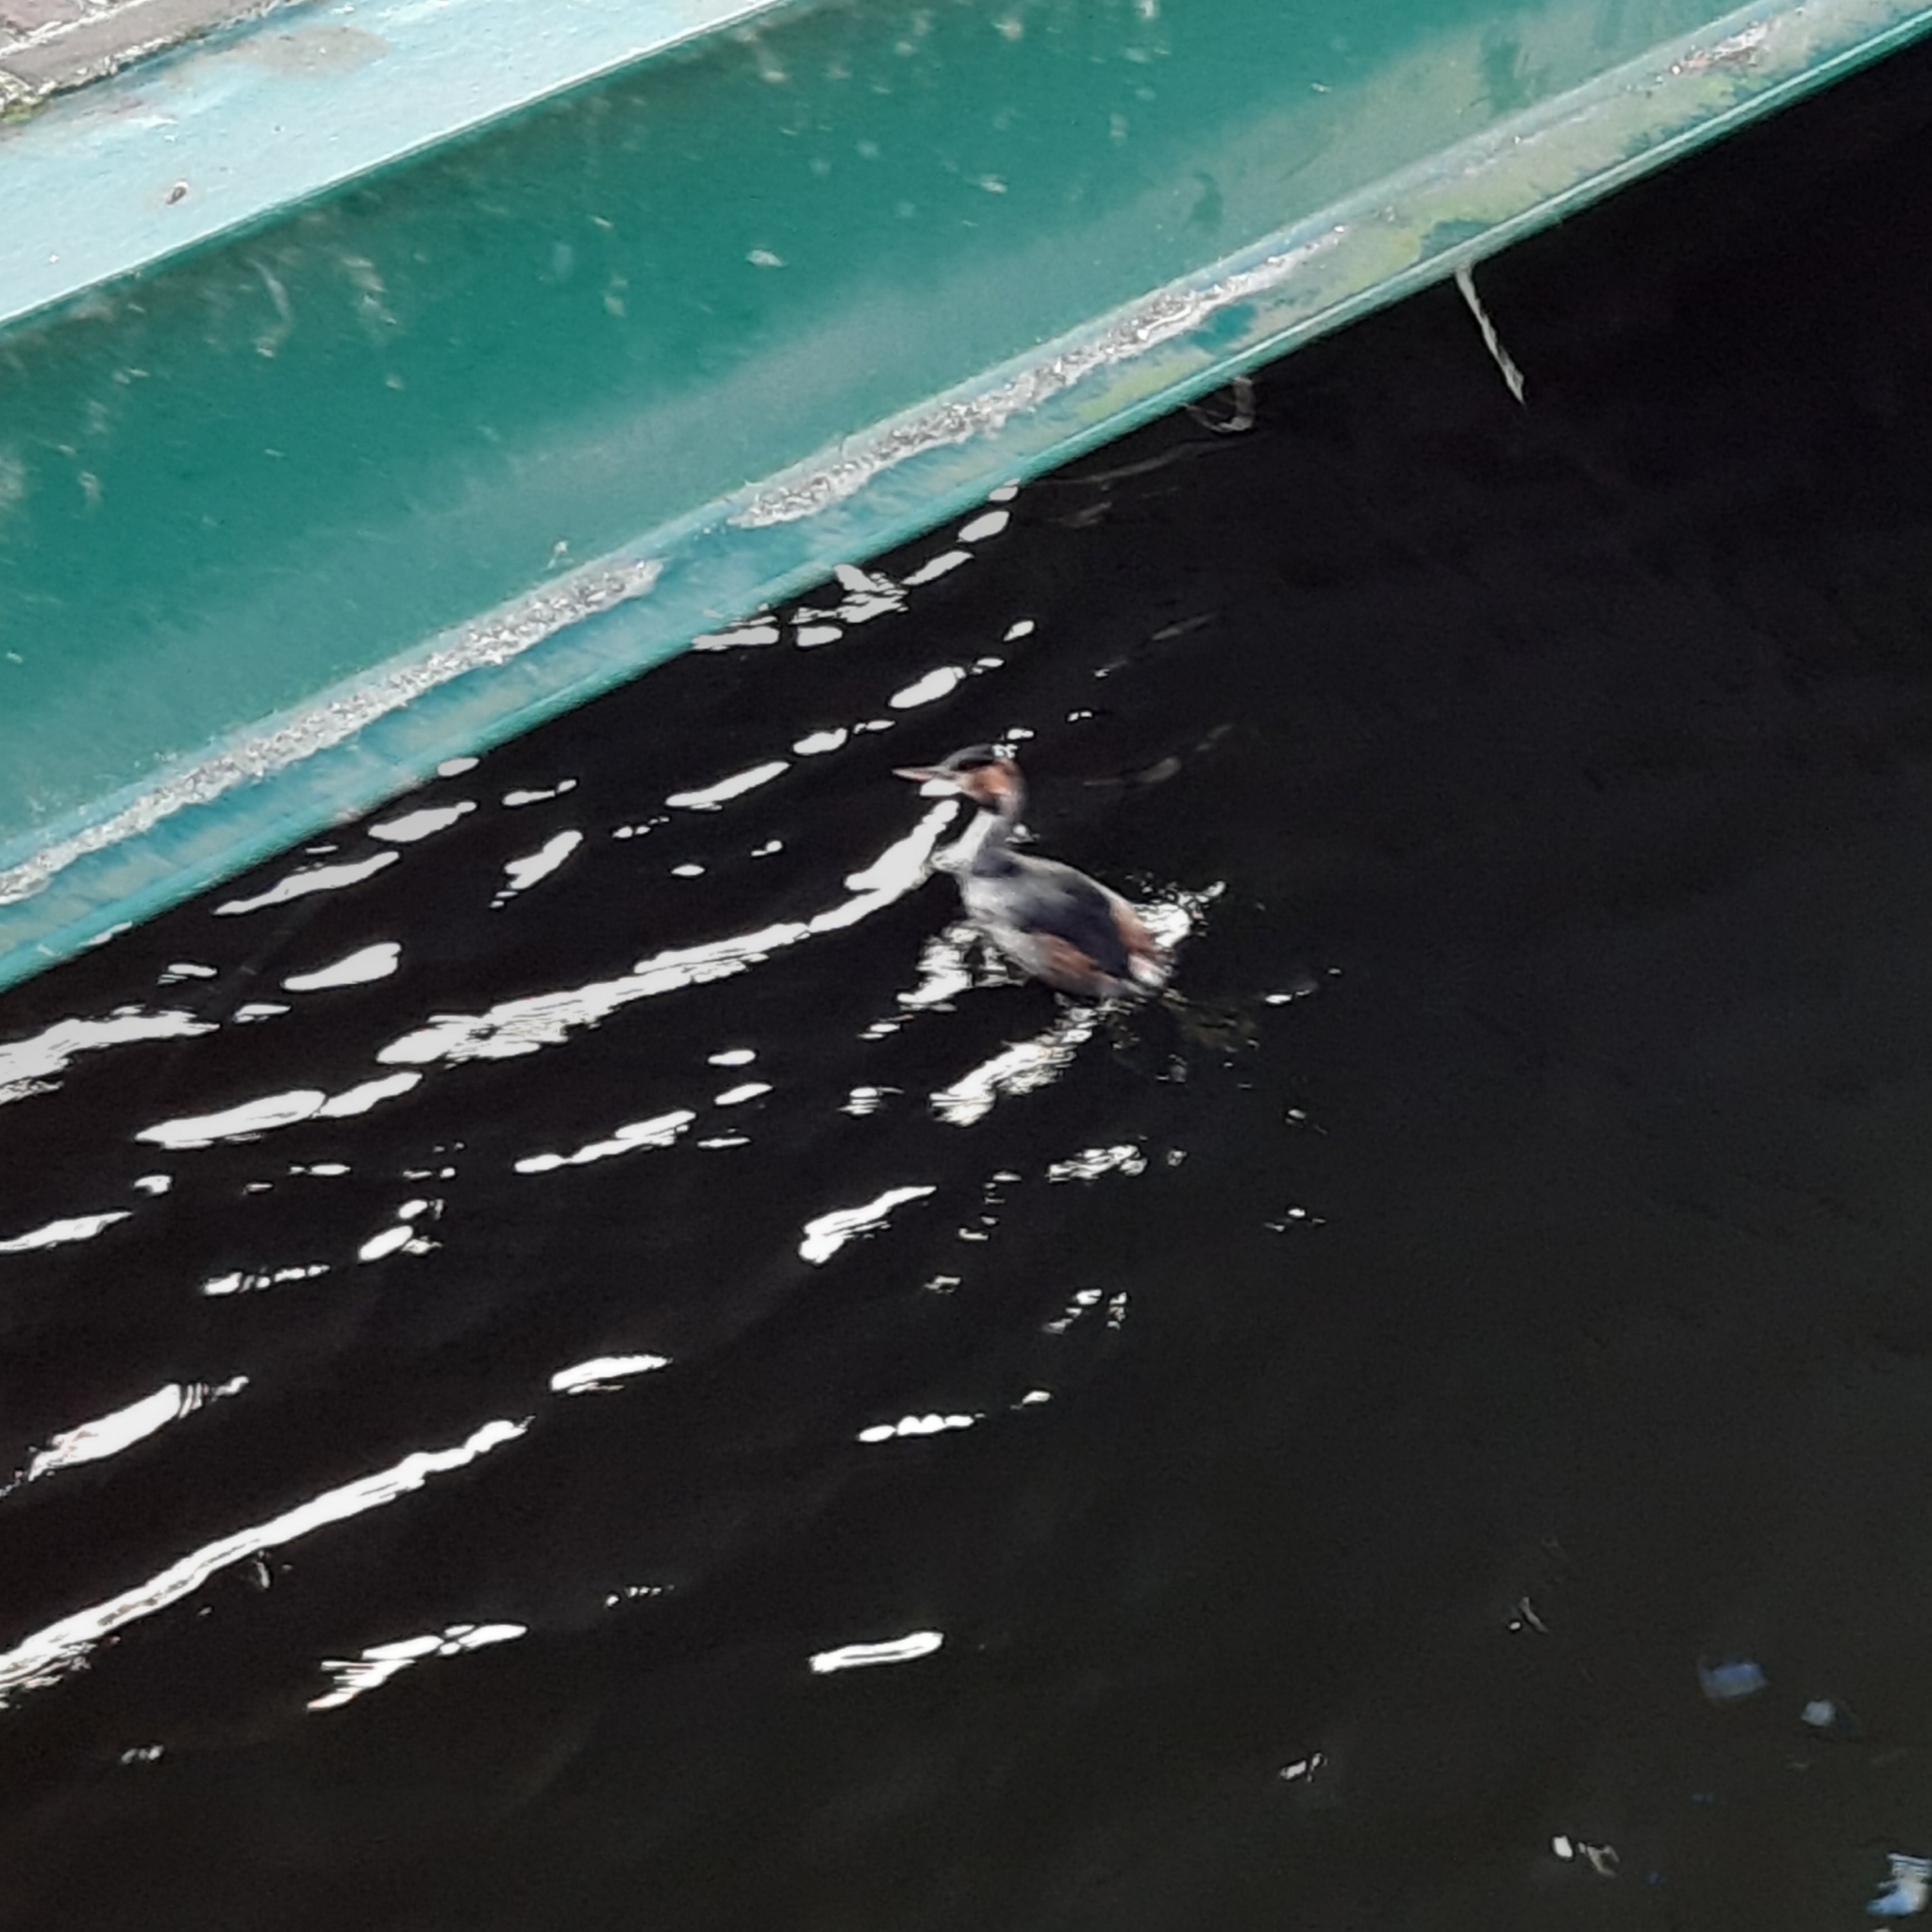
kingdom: Animalia
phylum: Chordata
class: Aves
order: Podicipediformes
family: Podicipedidae
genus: Podiceps
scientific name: Podiceps cristatus
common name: Great crested grebe
